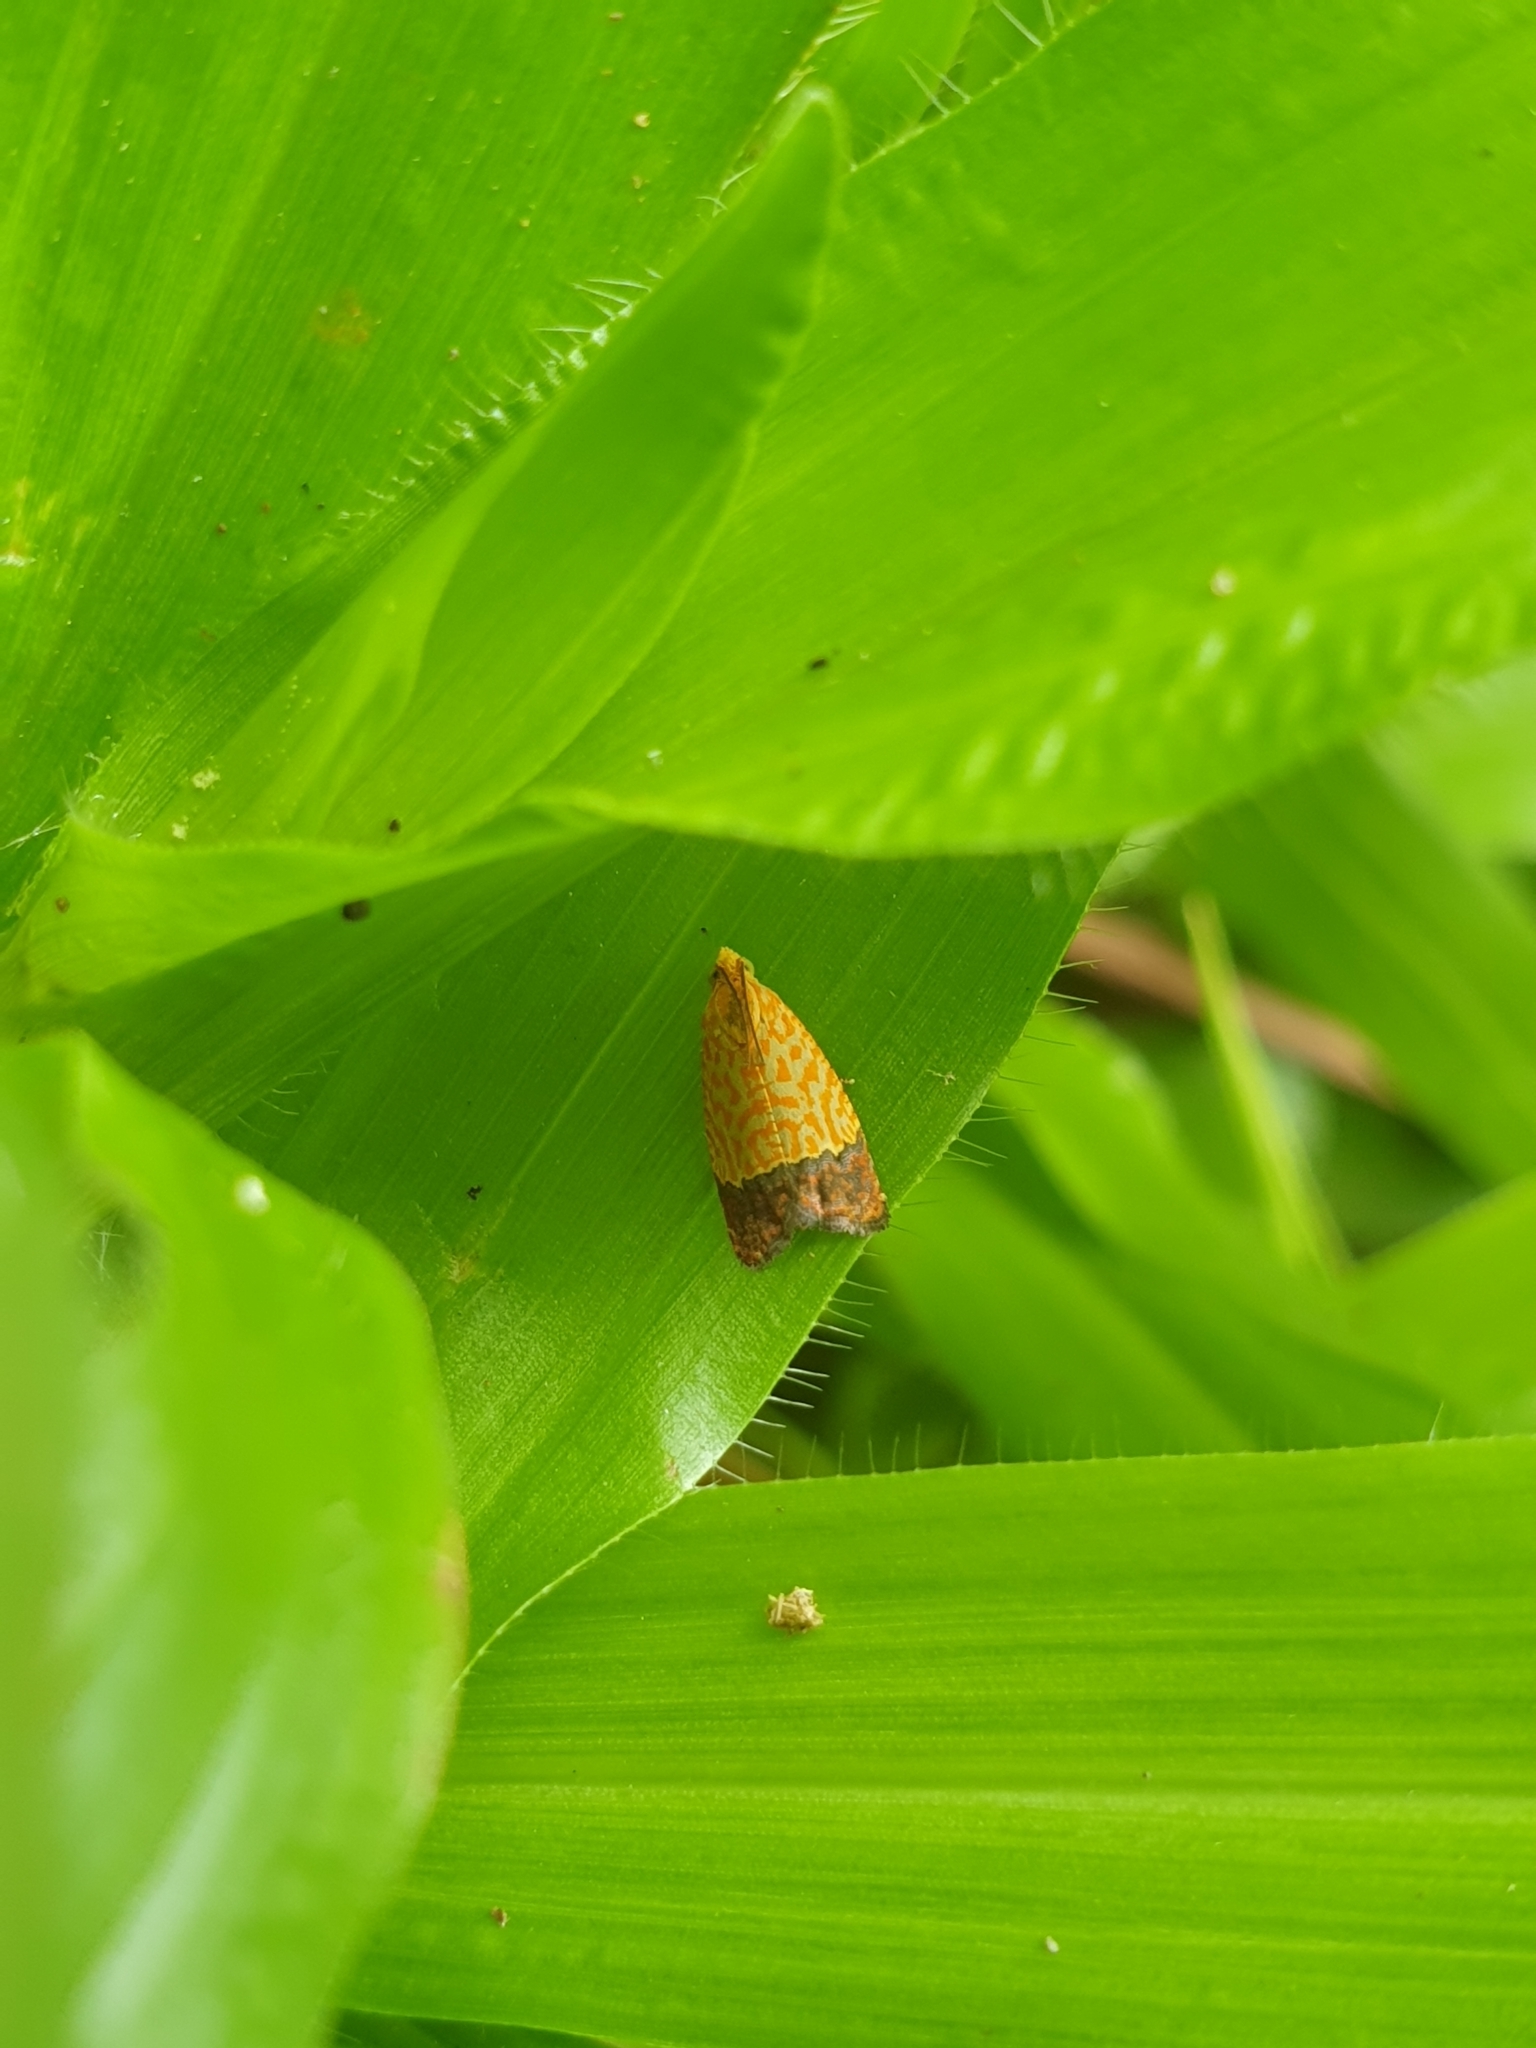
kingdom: Animalia
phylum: Arthropoda
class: Insecta
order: Lepidoptera
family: Tortricidae
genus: Loboschiza
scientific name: Loboschiza koenigiana
